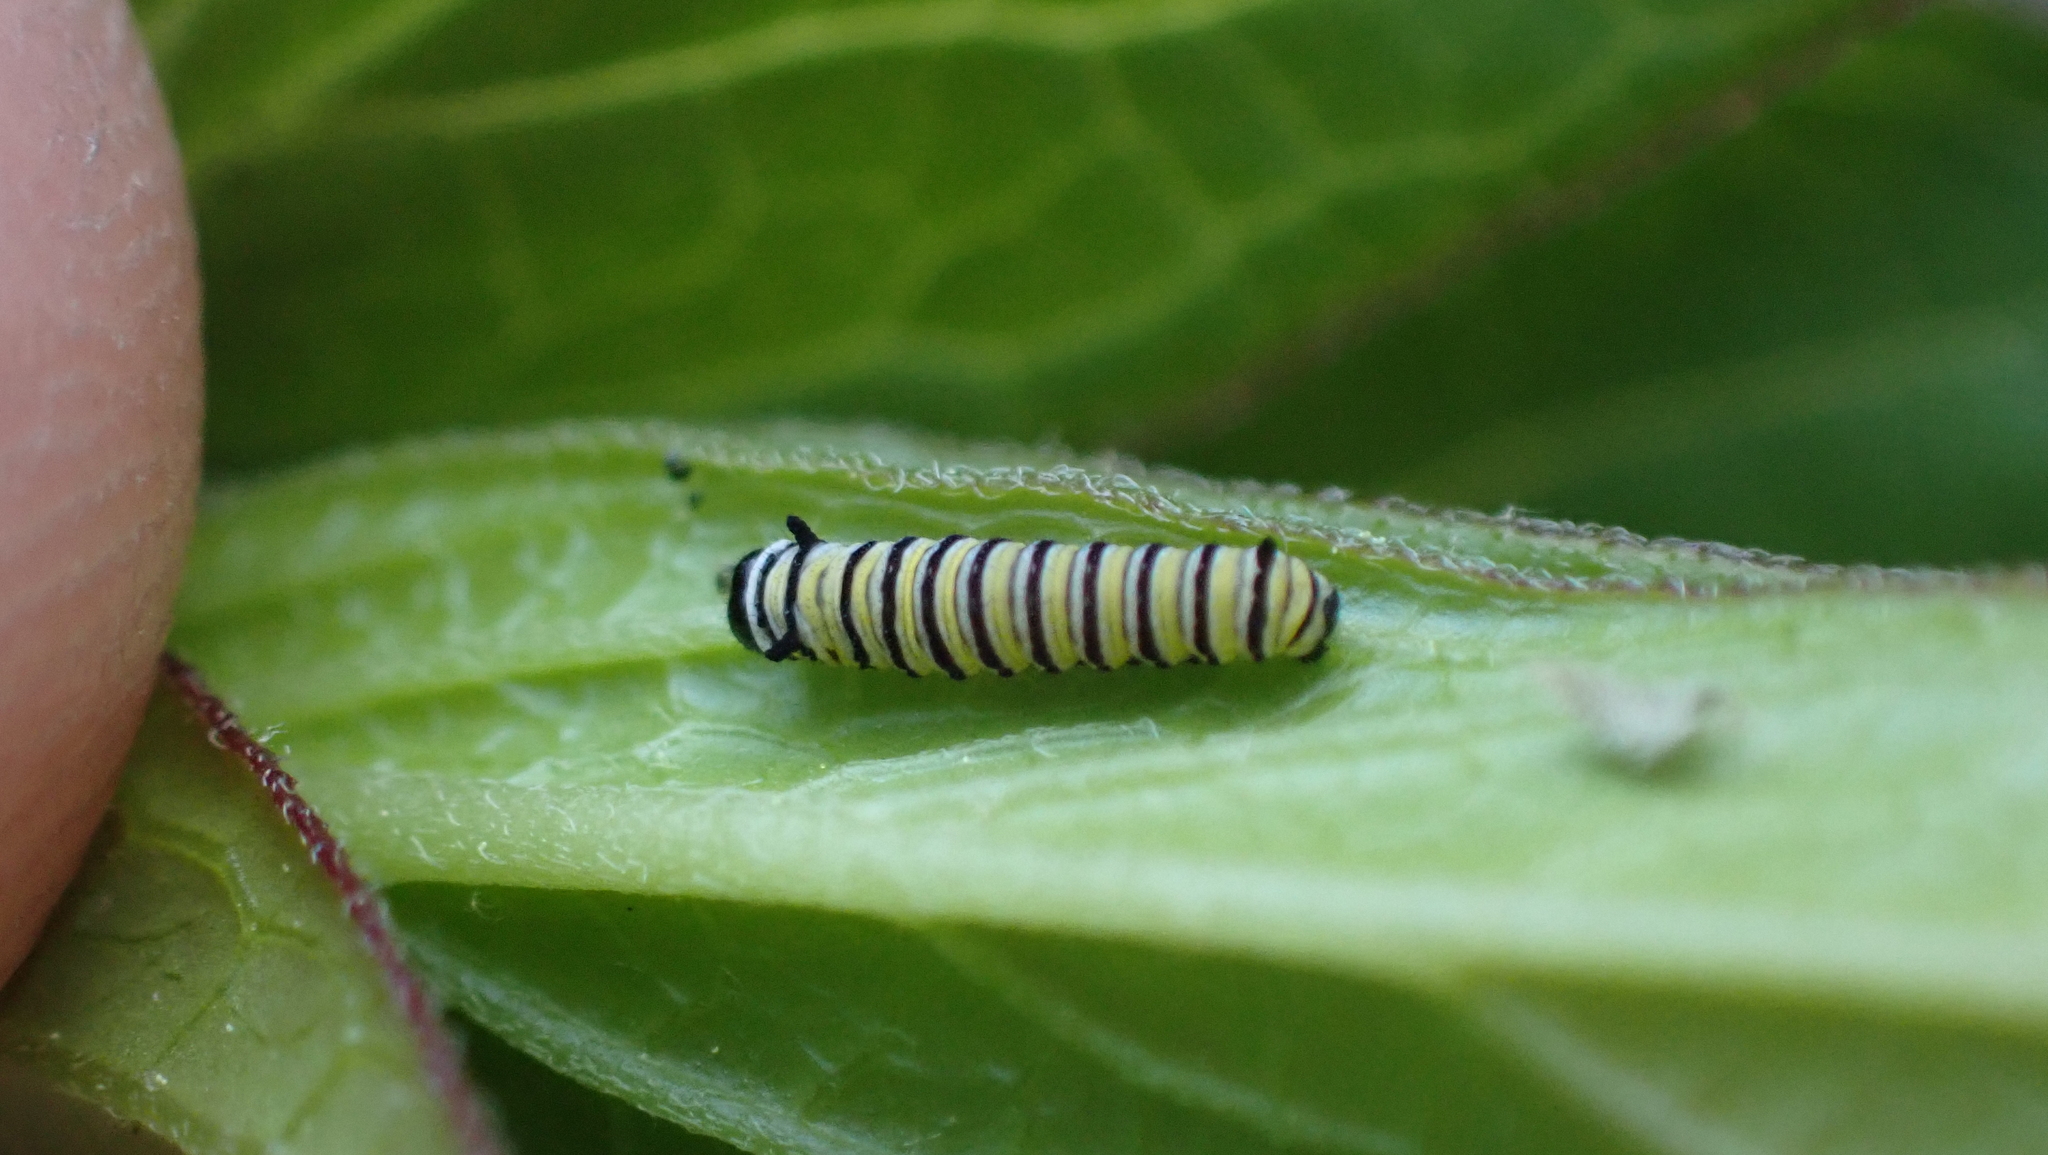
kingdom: Animalia
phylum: Arthropoda
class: Insecta
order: Lepidoptera
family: Nymphalidae
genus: Danaus
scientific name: Danaus plexippus
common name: Monarch
